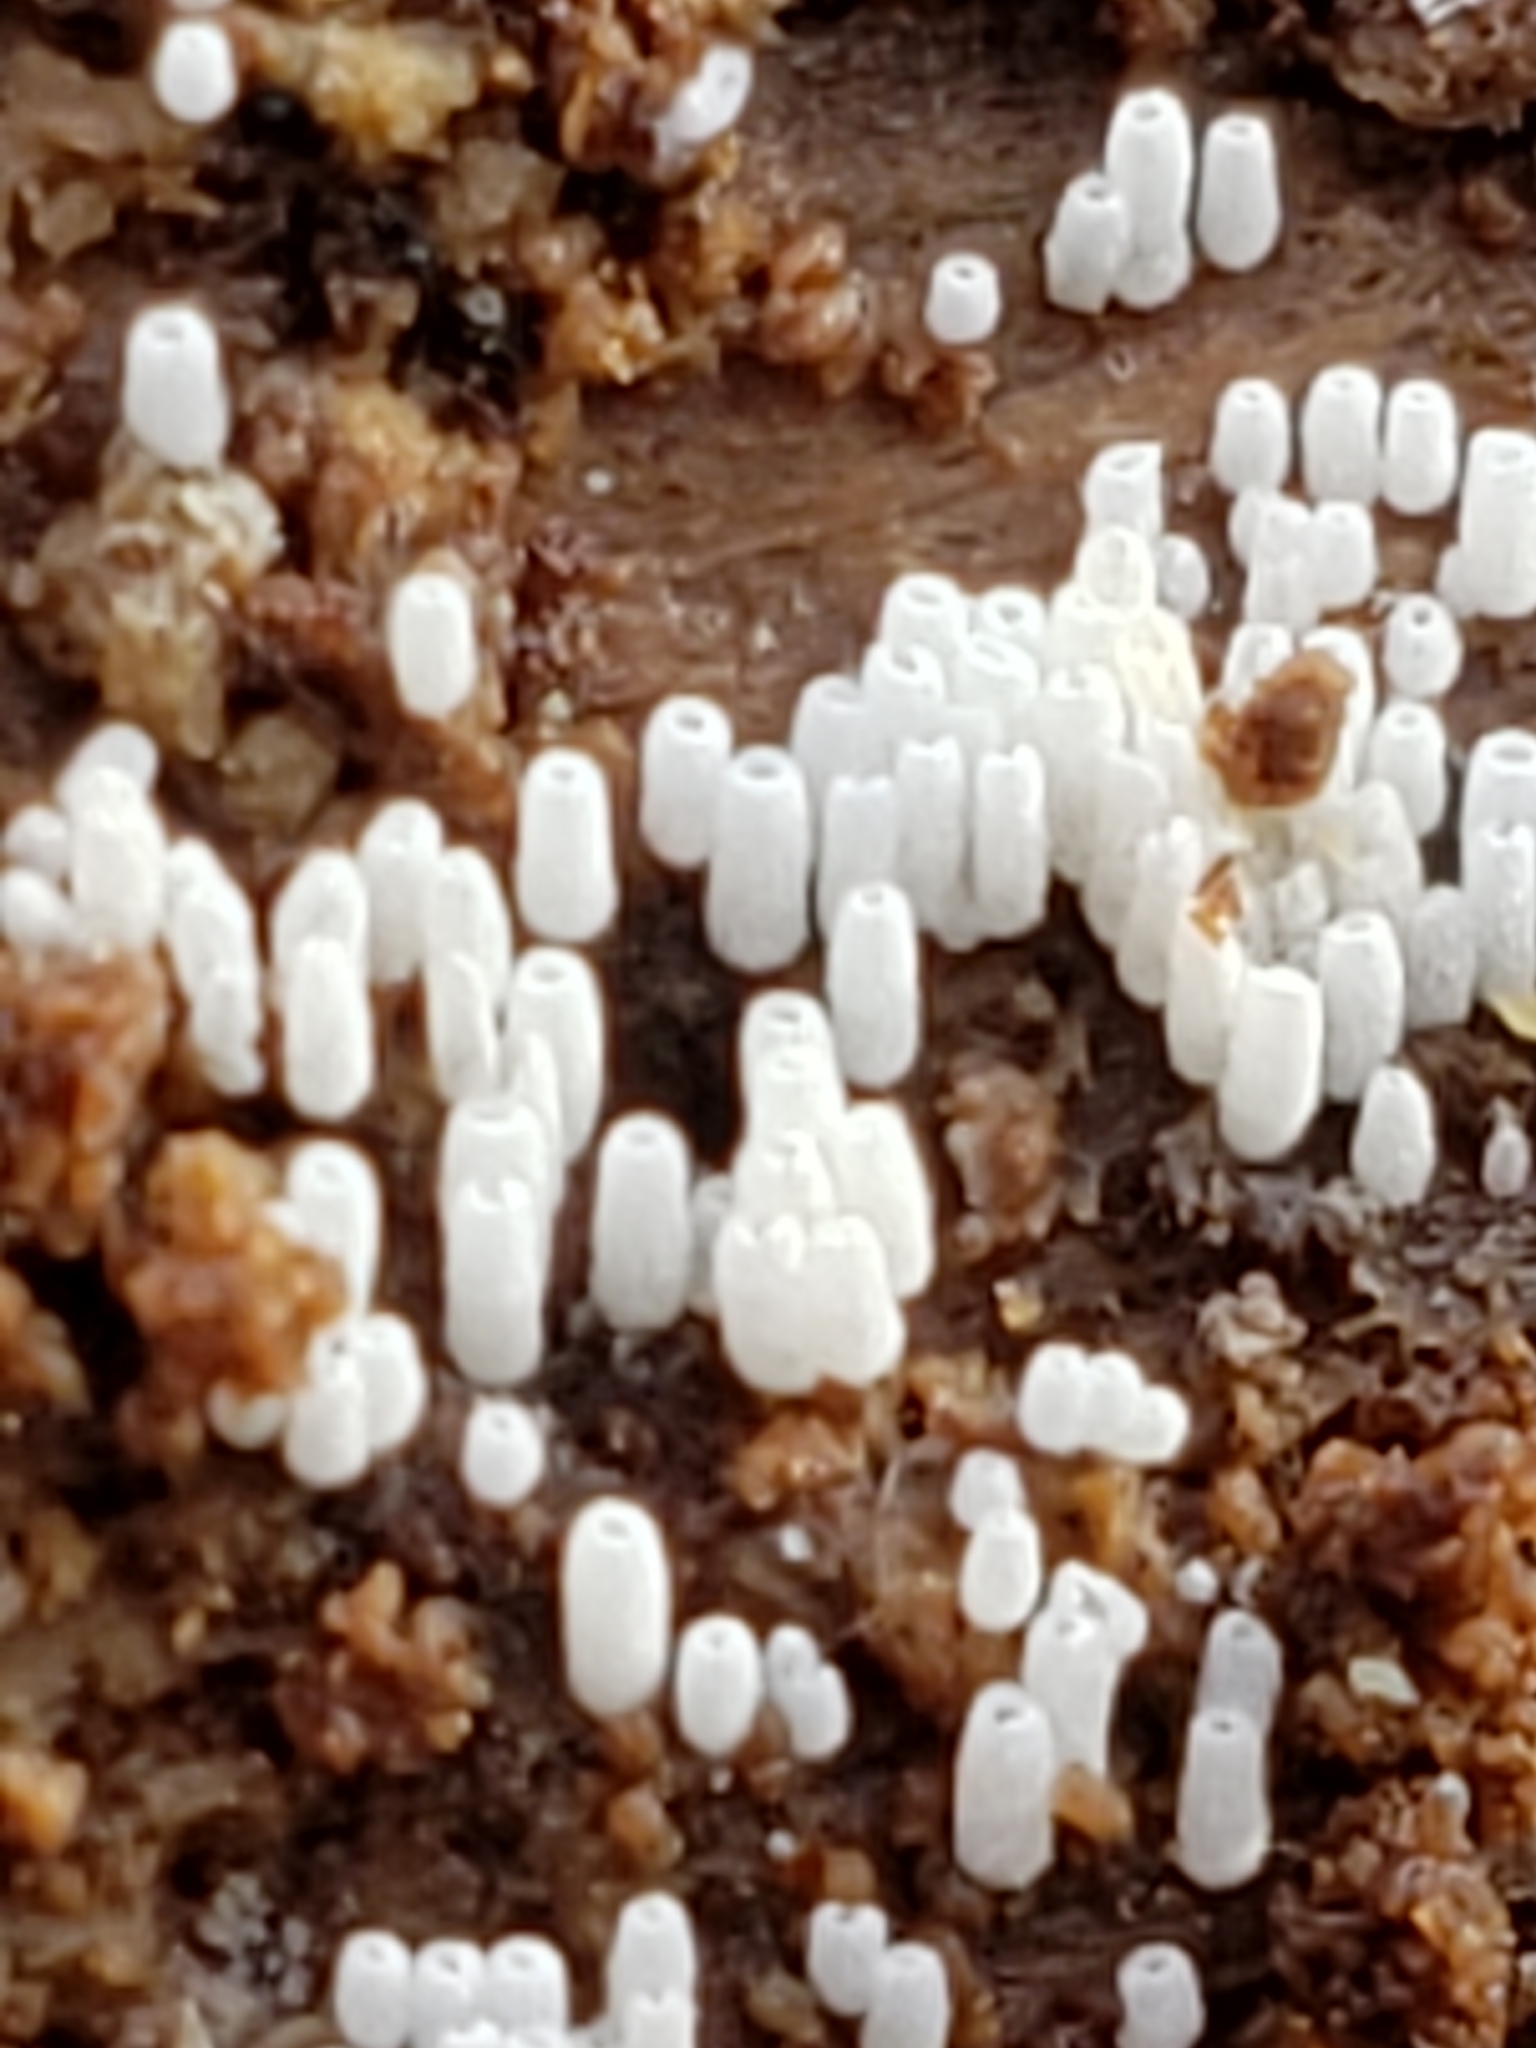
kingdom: Fungi
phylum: Basidiomycota
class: Agaricomycetes
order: Agaricales
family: Marasmiaceae
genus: Henningsomyces
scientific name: Henningsomyces candidus
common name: White tubelet
